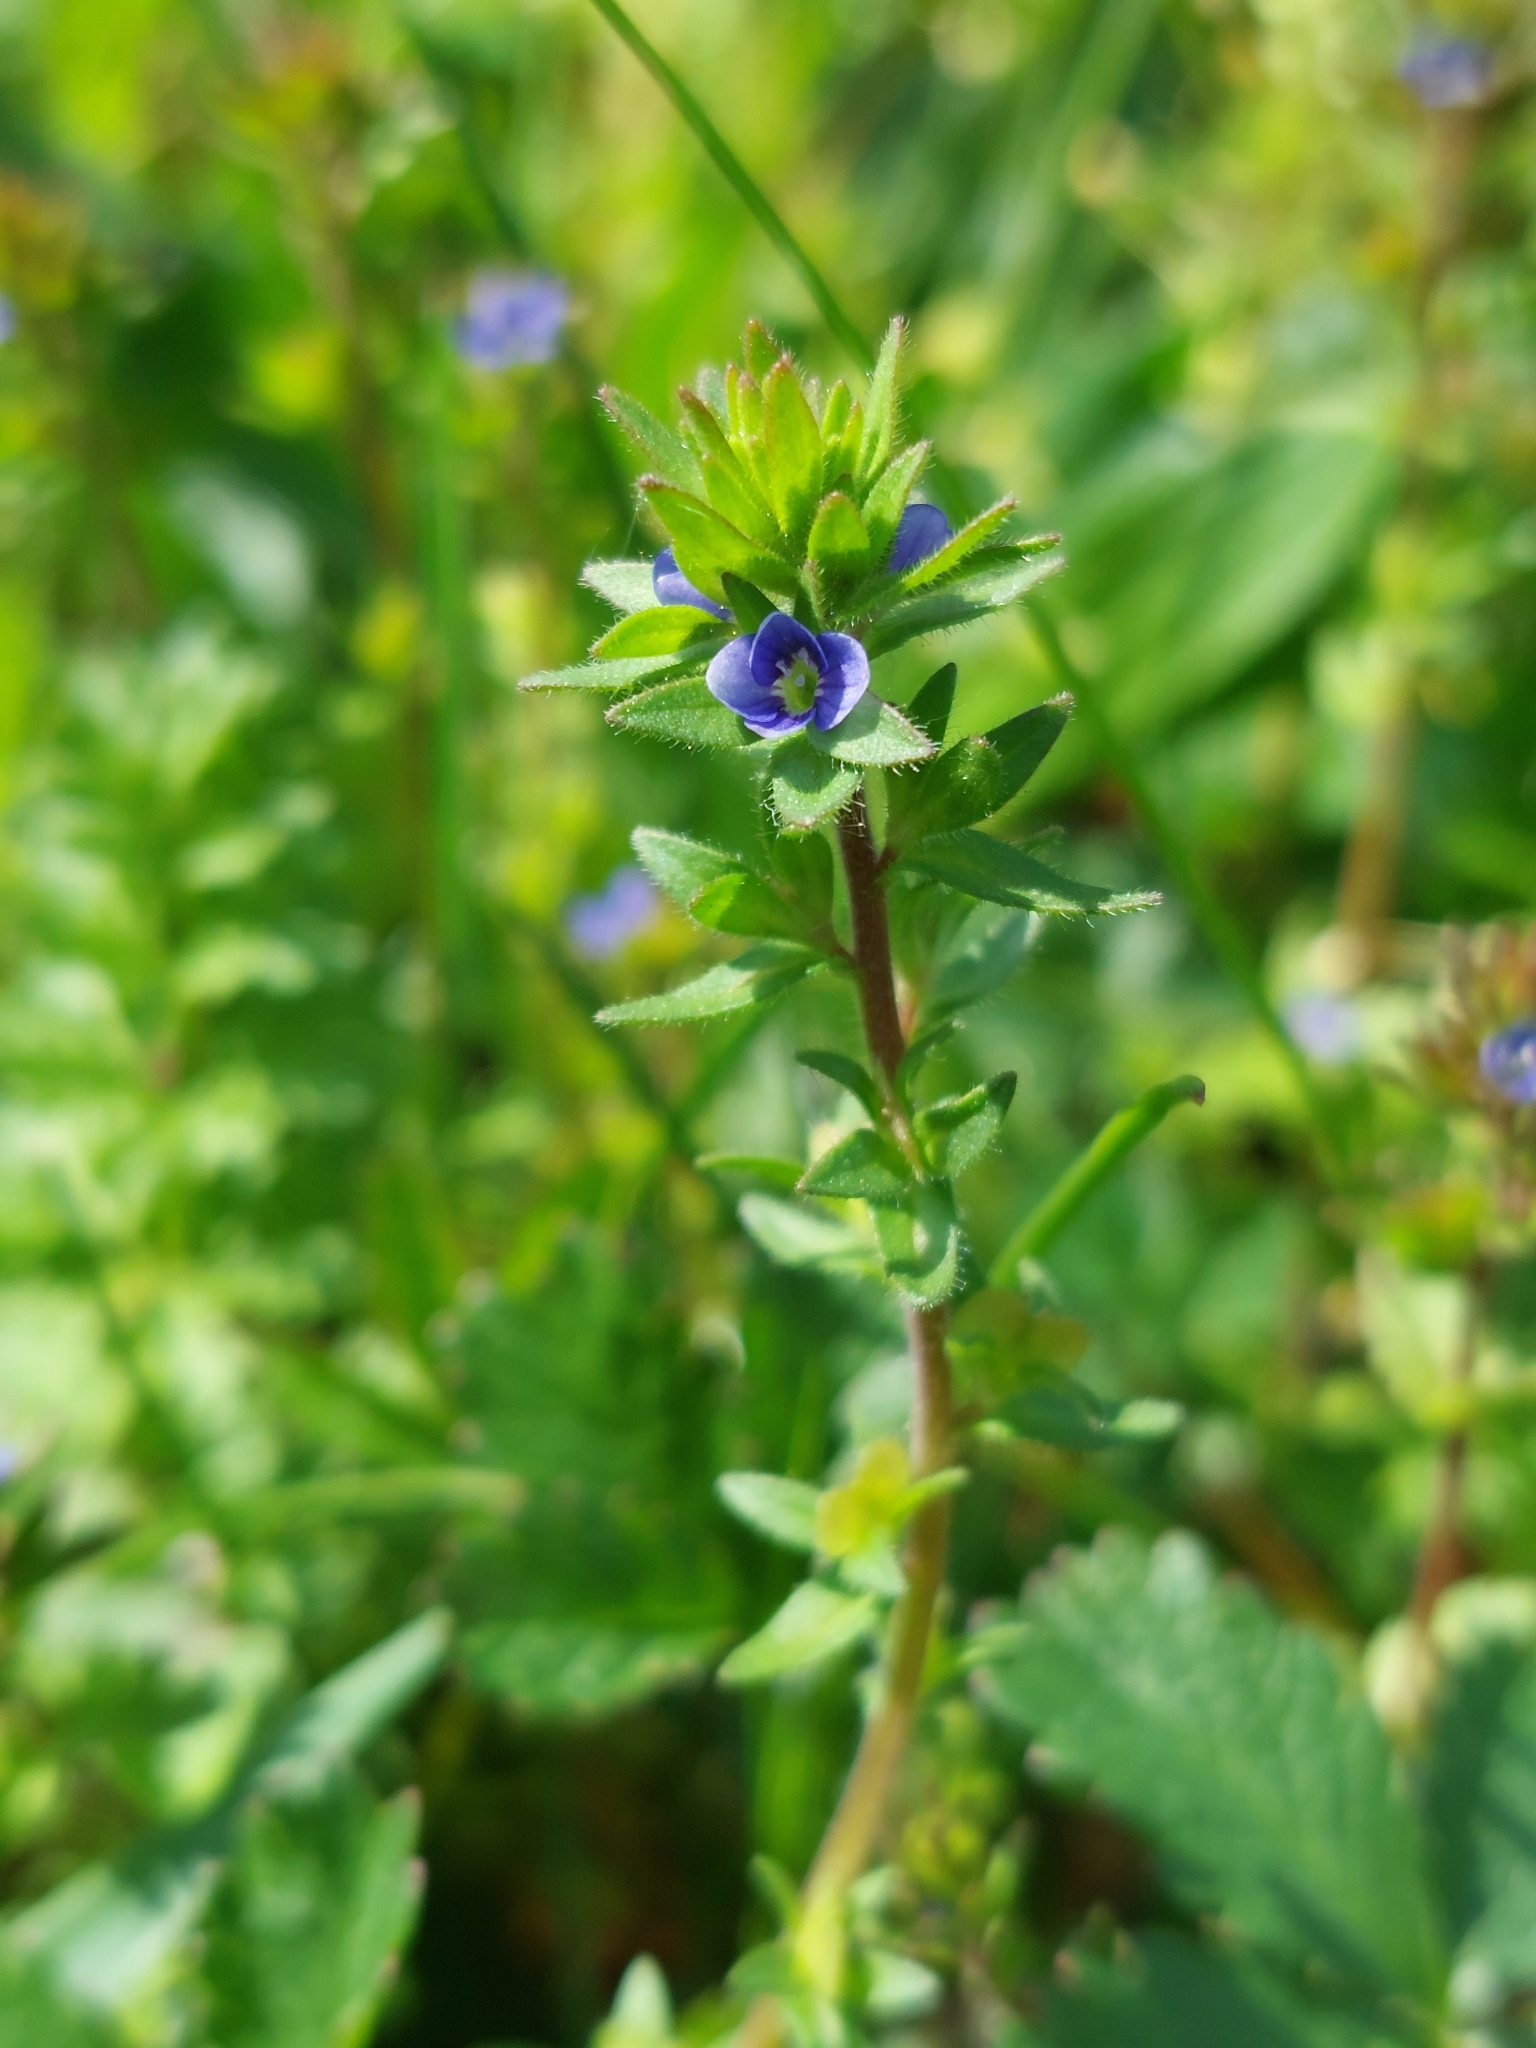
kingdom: Plantae
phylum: Tracheophyta
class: Magnoliopsida
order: Lamiales
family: Plantaginaceae
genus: Veronica
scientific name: Veronica arvensis
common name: Corn speedwell
